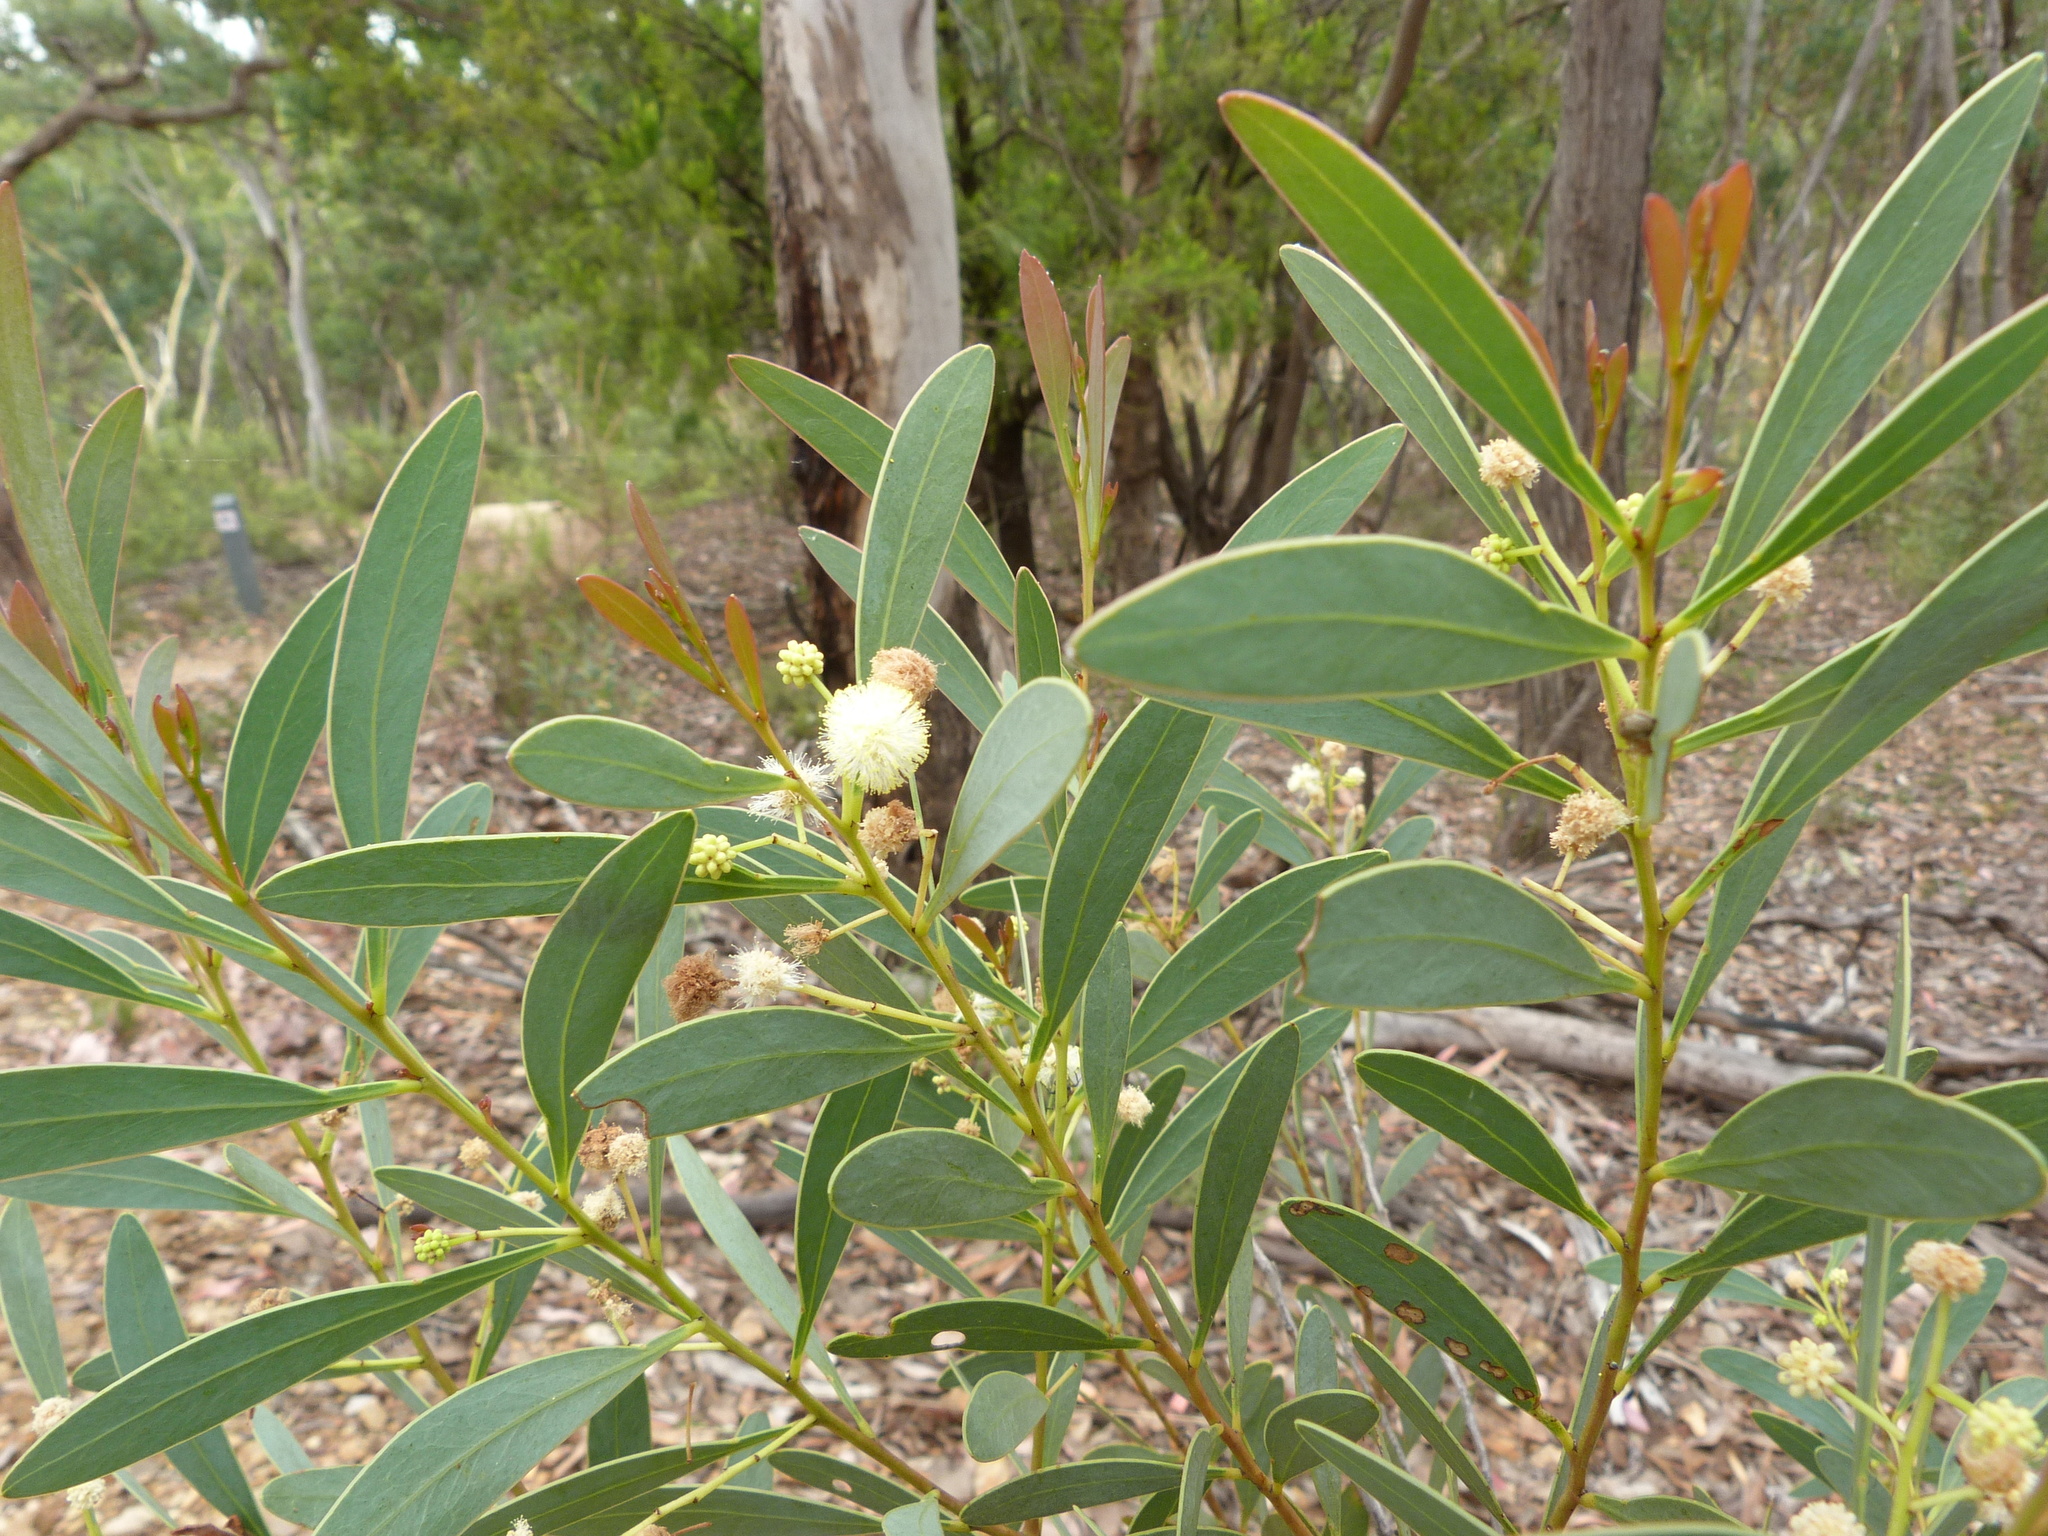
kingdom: Plantae
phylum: Tracheophyta
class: Magnoliopsida
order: Fabales
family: Fabaceae
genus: Acacia
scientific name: Acacia penninervis
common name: Hickory wattle
